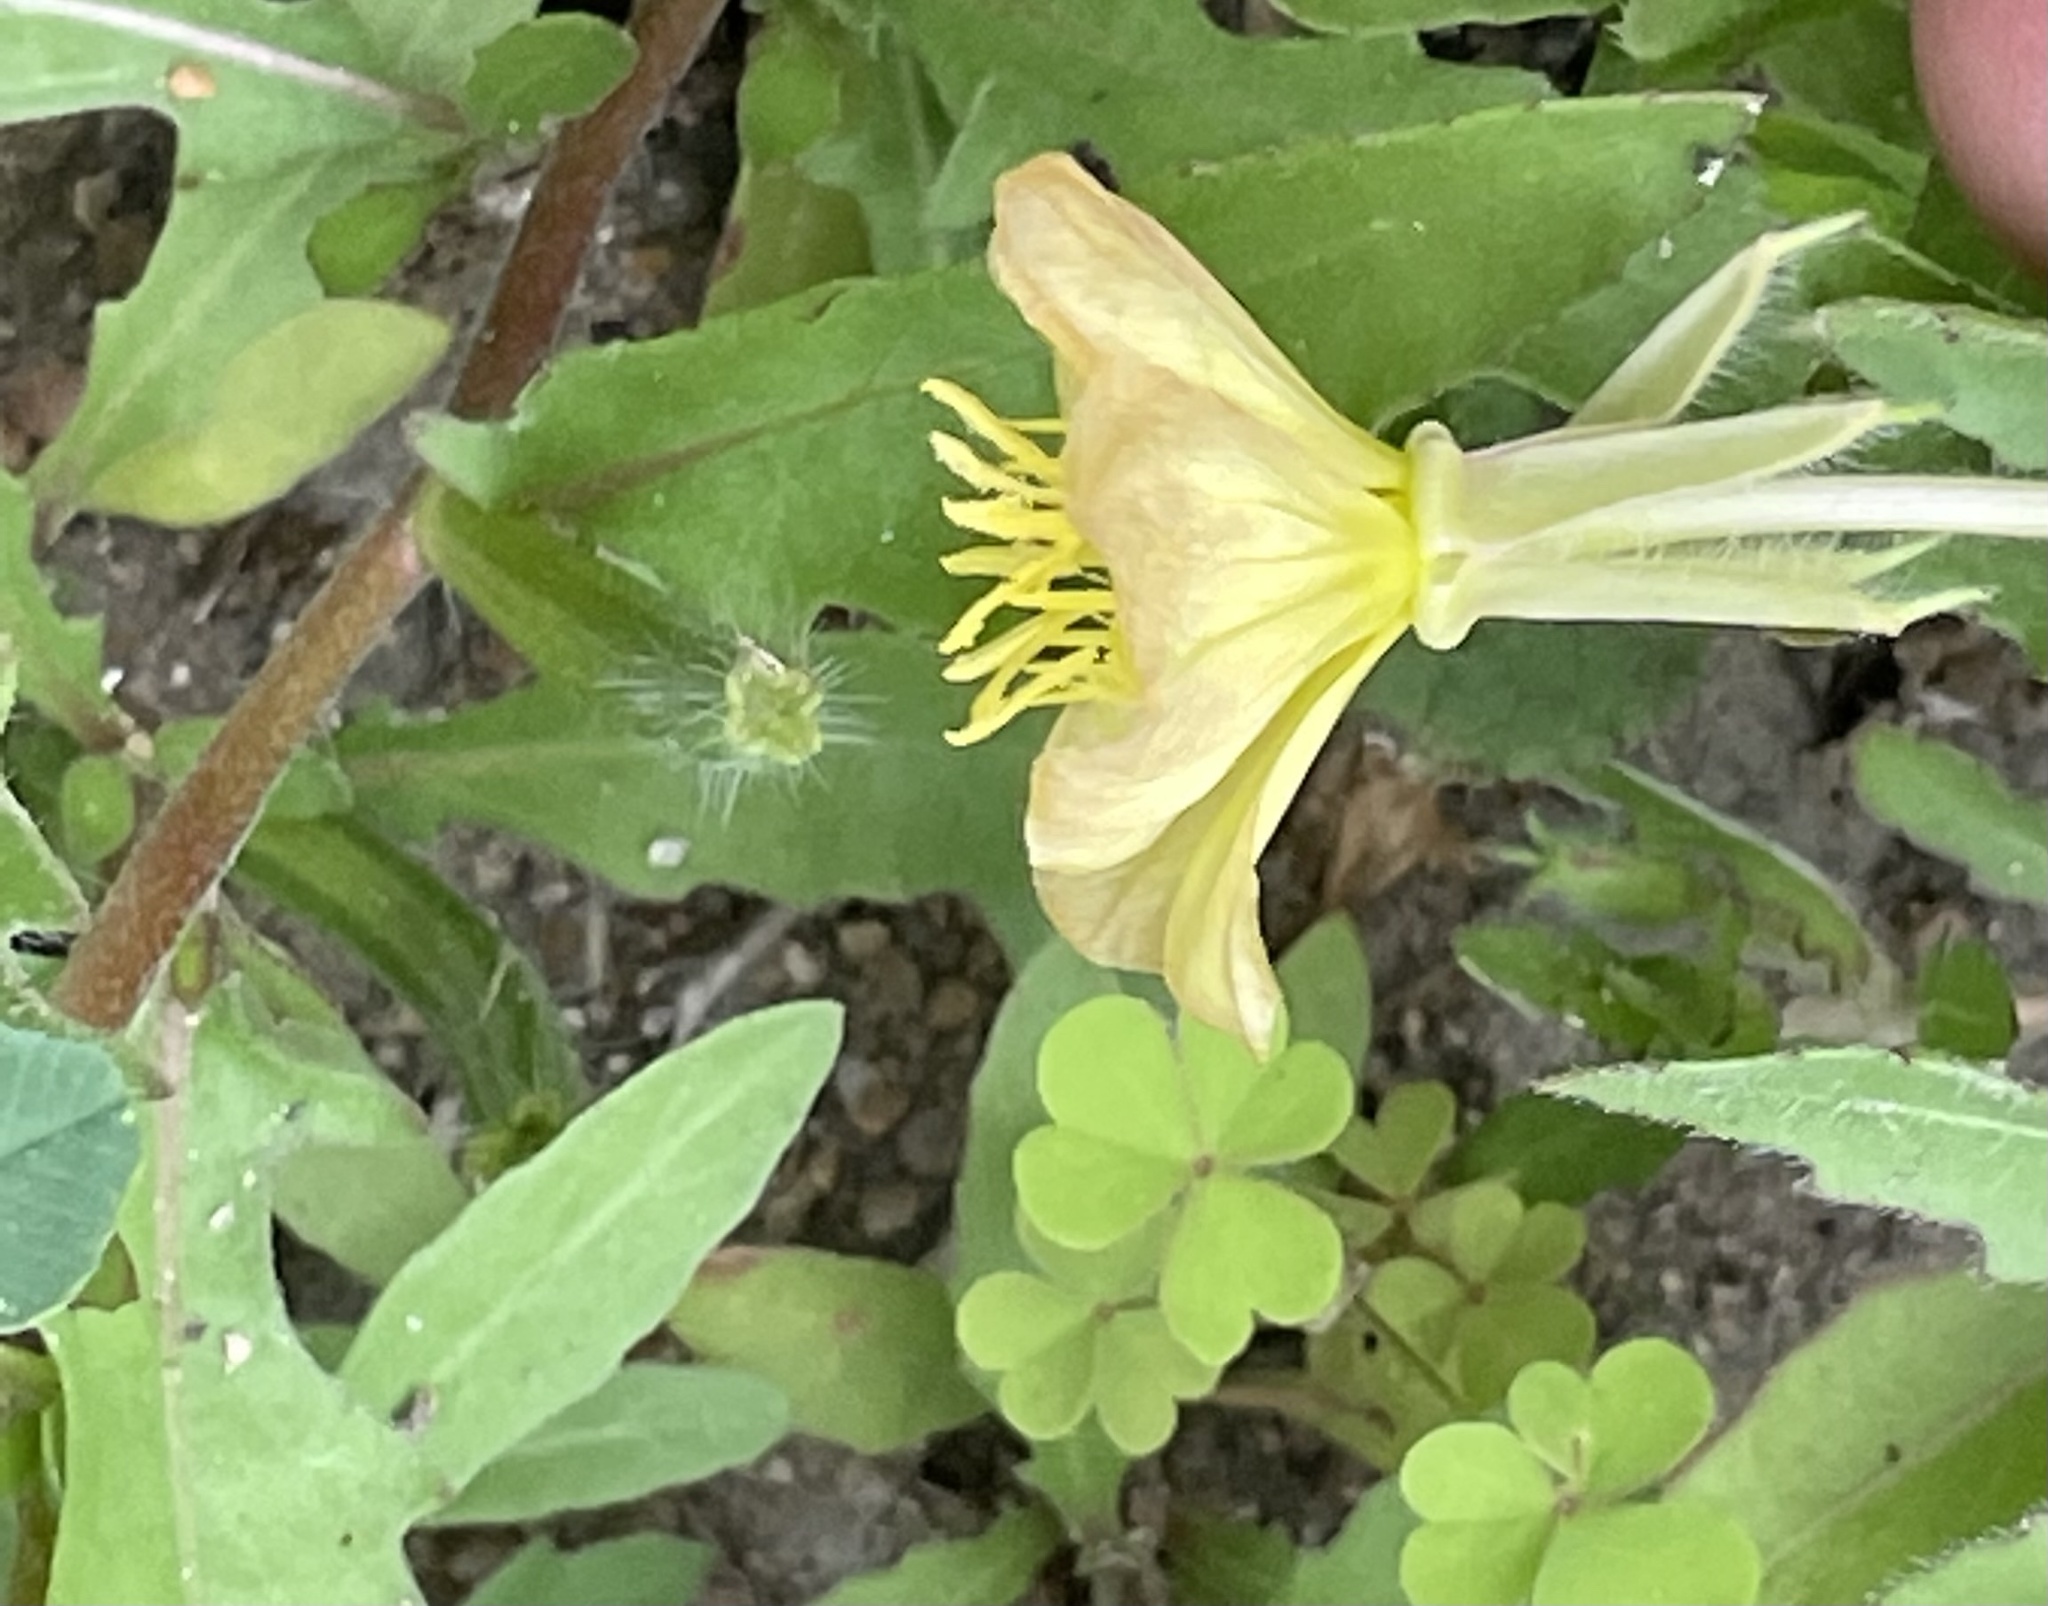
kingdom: Plantae
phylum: Tracheophyta
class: Magnoliopsida
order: Myrtales
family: Onagraceae
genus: Oenothera
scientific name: Oenothera laciniata
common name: Cut-leaved evening-primrose
